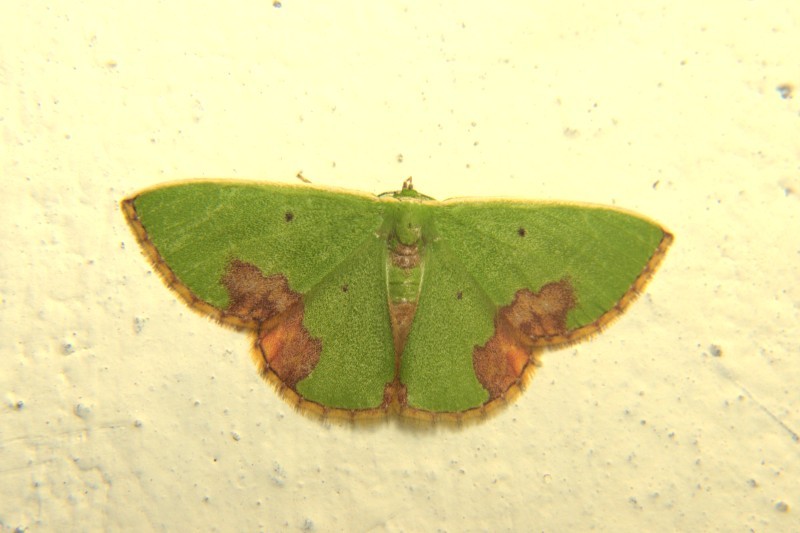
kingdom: Animalia
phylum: Arthropoda
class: Insecta
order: Lepidoptera
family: Geometridae
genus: Comibaena
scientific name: Comibaena biplaga
